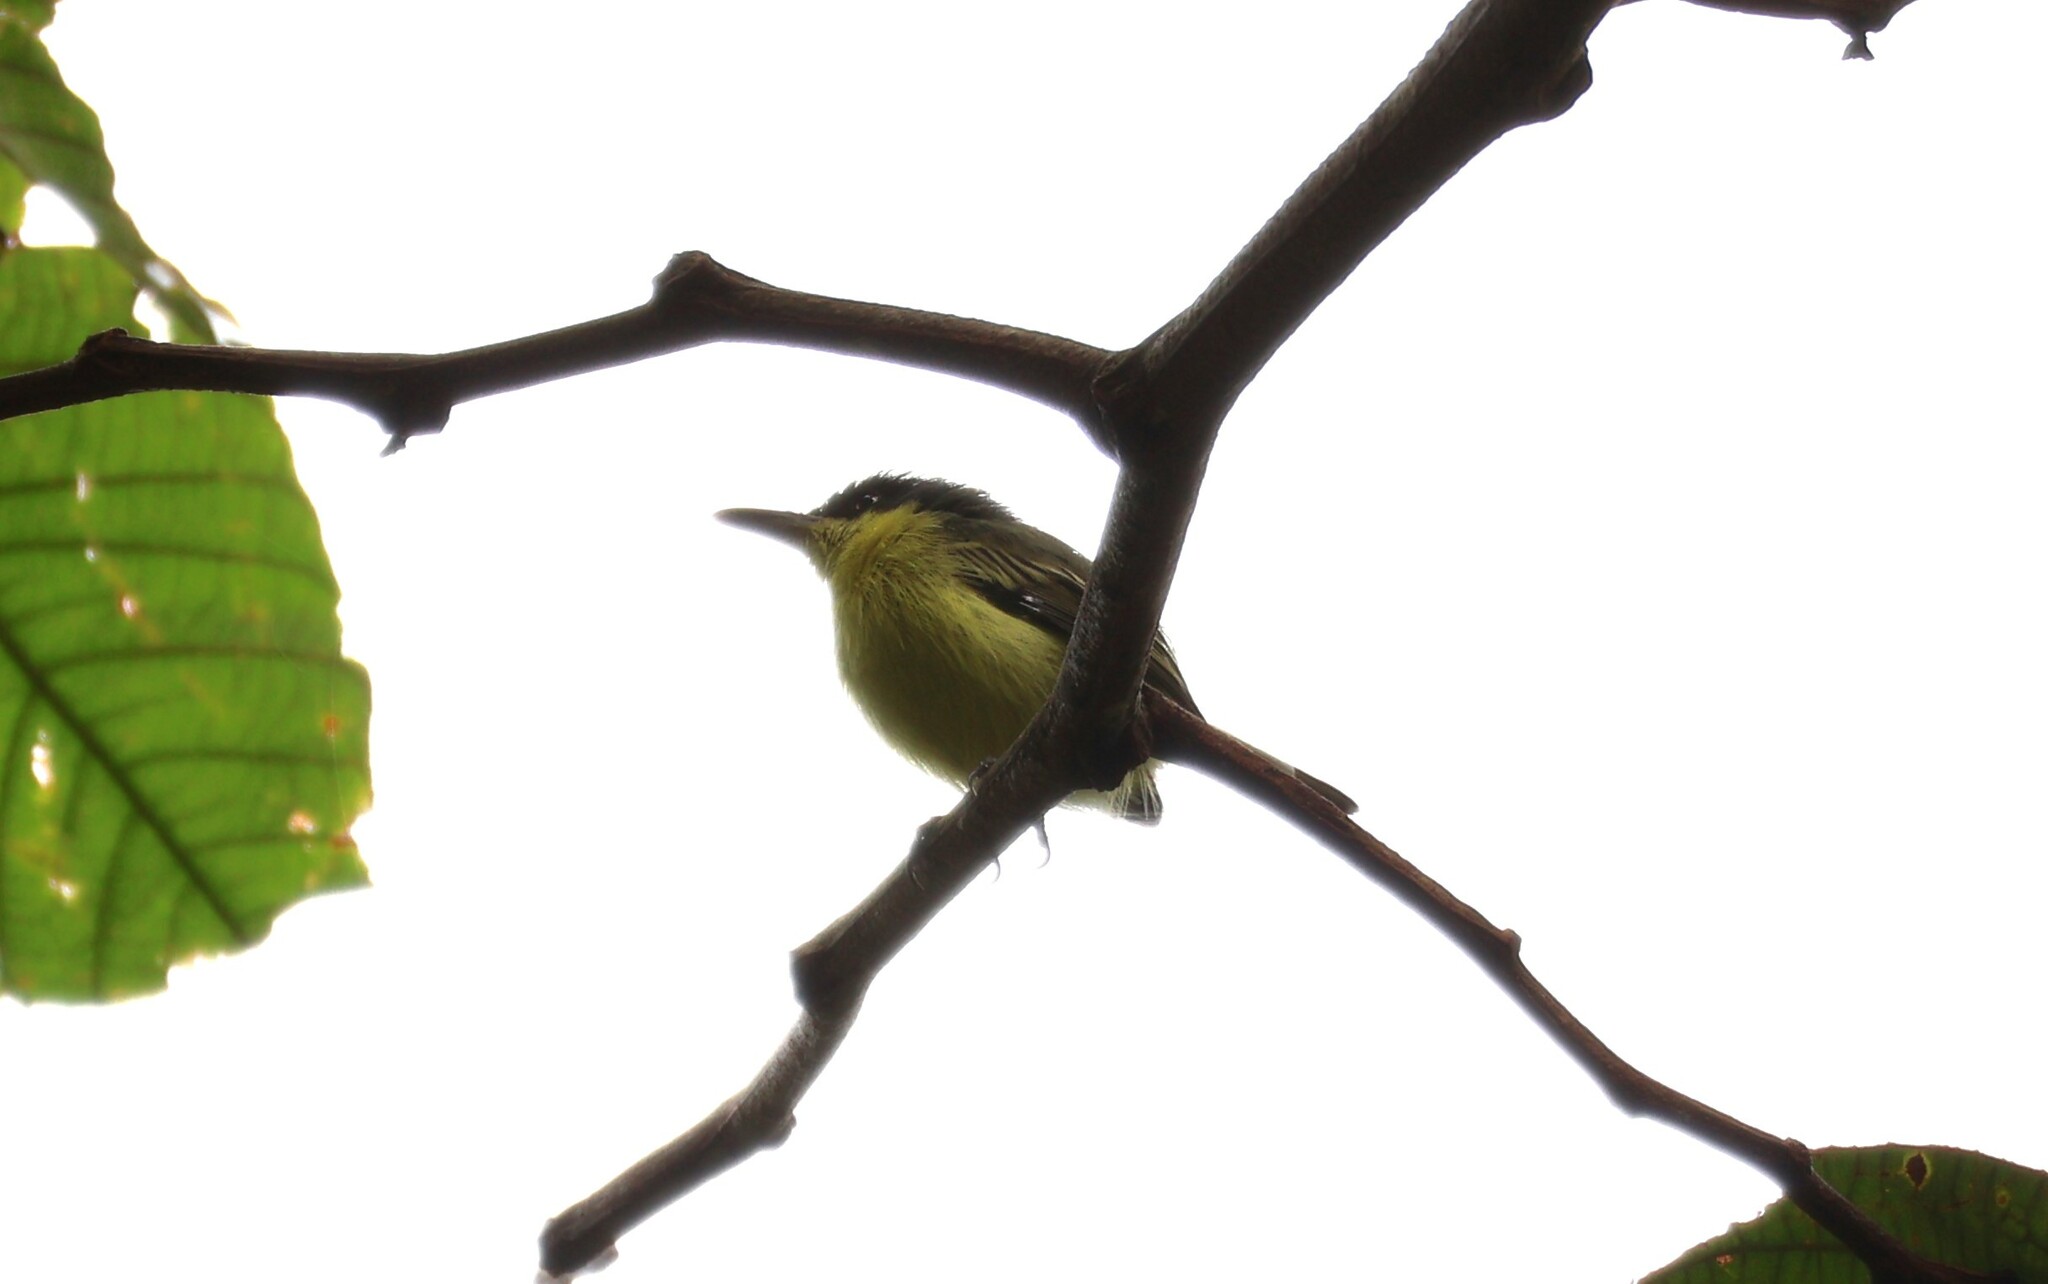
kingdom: Animalia
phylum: Chordata
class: Aves
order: Passeriformes
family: Tyrannidae
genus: Todirostrum
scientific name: Todirostrum cinereum
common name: Common tody-flycatcher
